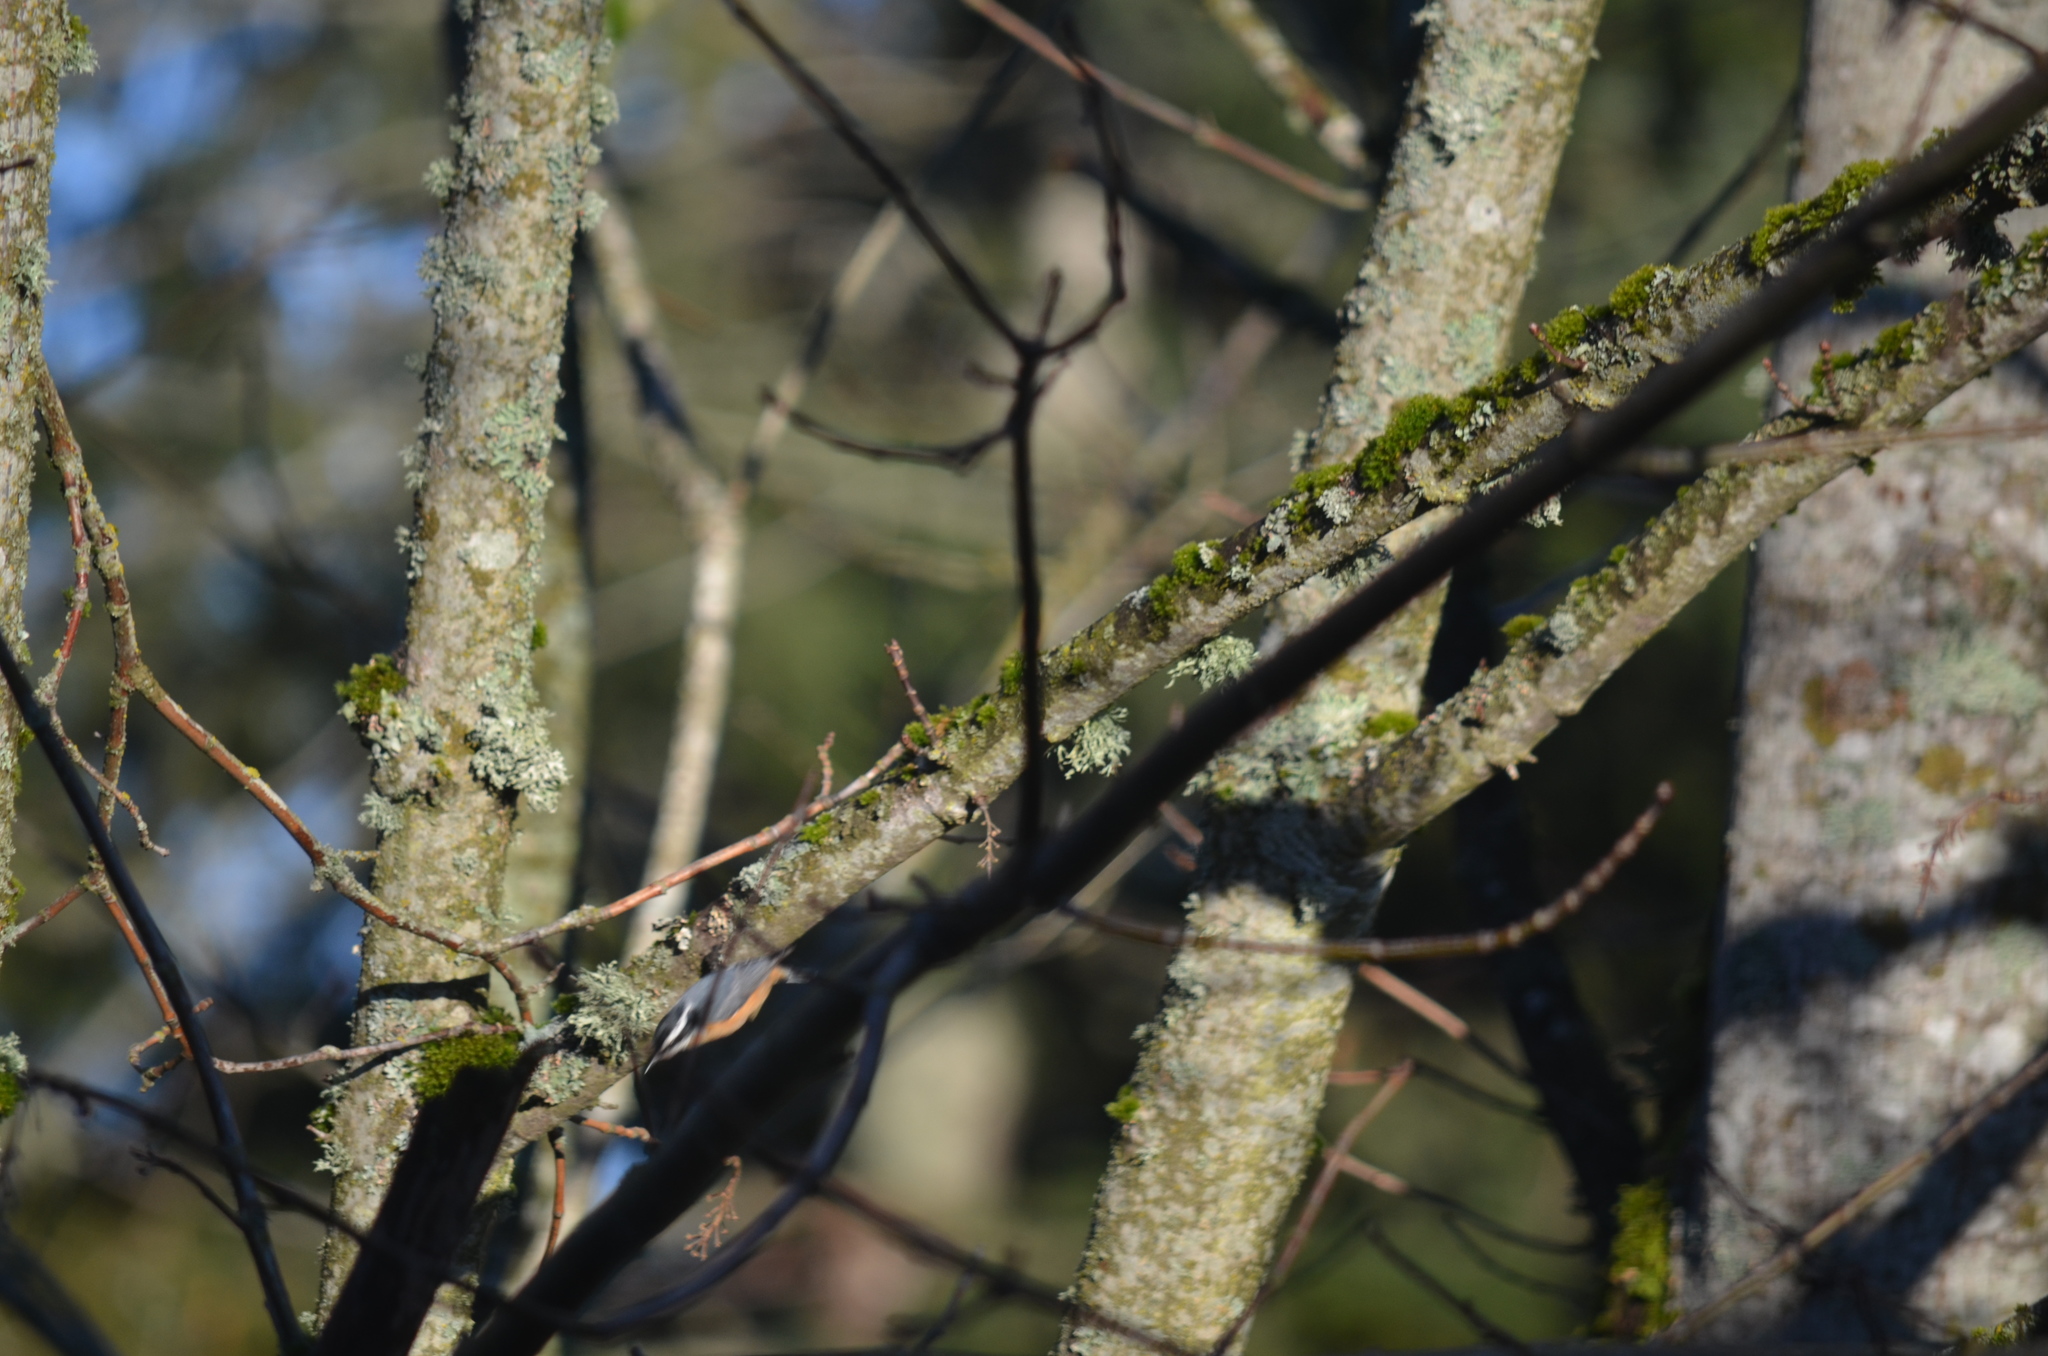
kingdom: Animalia
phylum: Chordata
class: Aves
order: Passeriformes
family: Sittidae
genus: Sitta
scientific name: Sitta canadensis
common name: Red-breasted nuthatch
